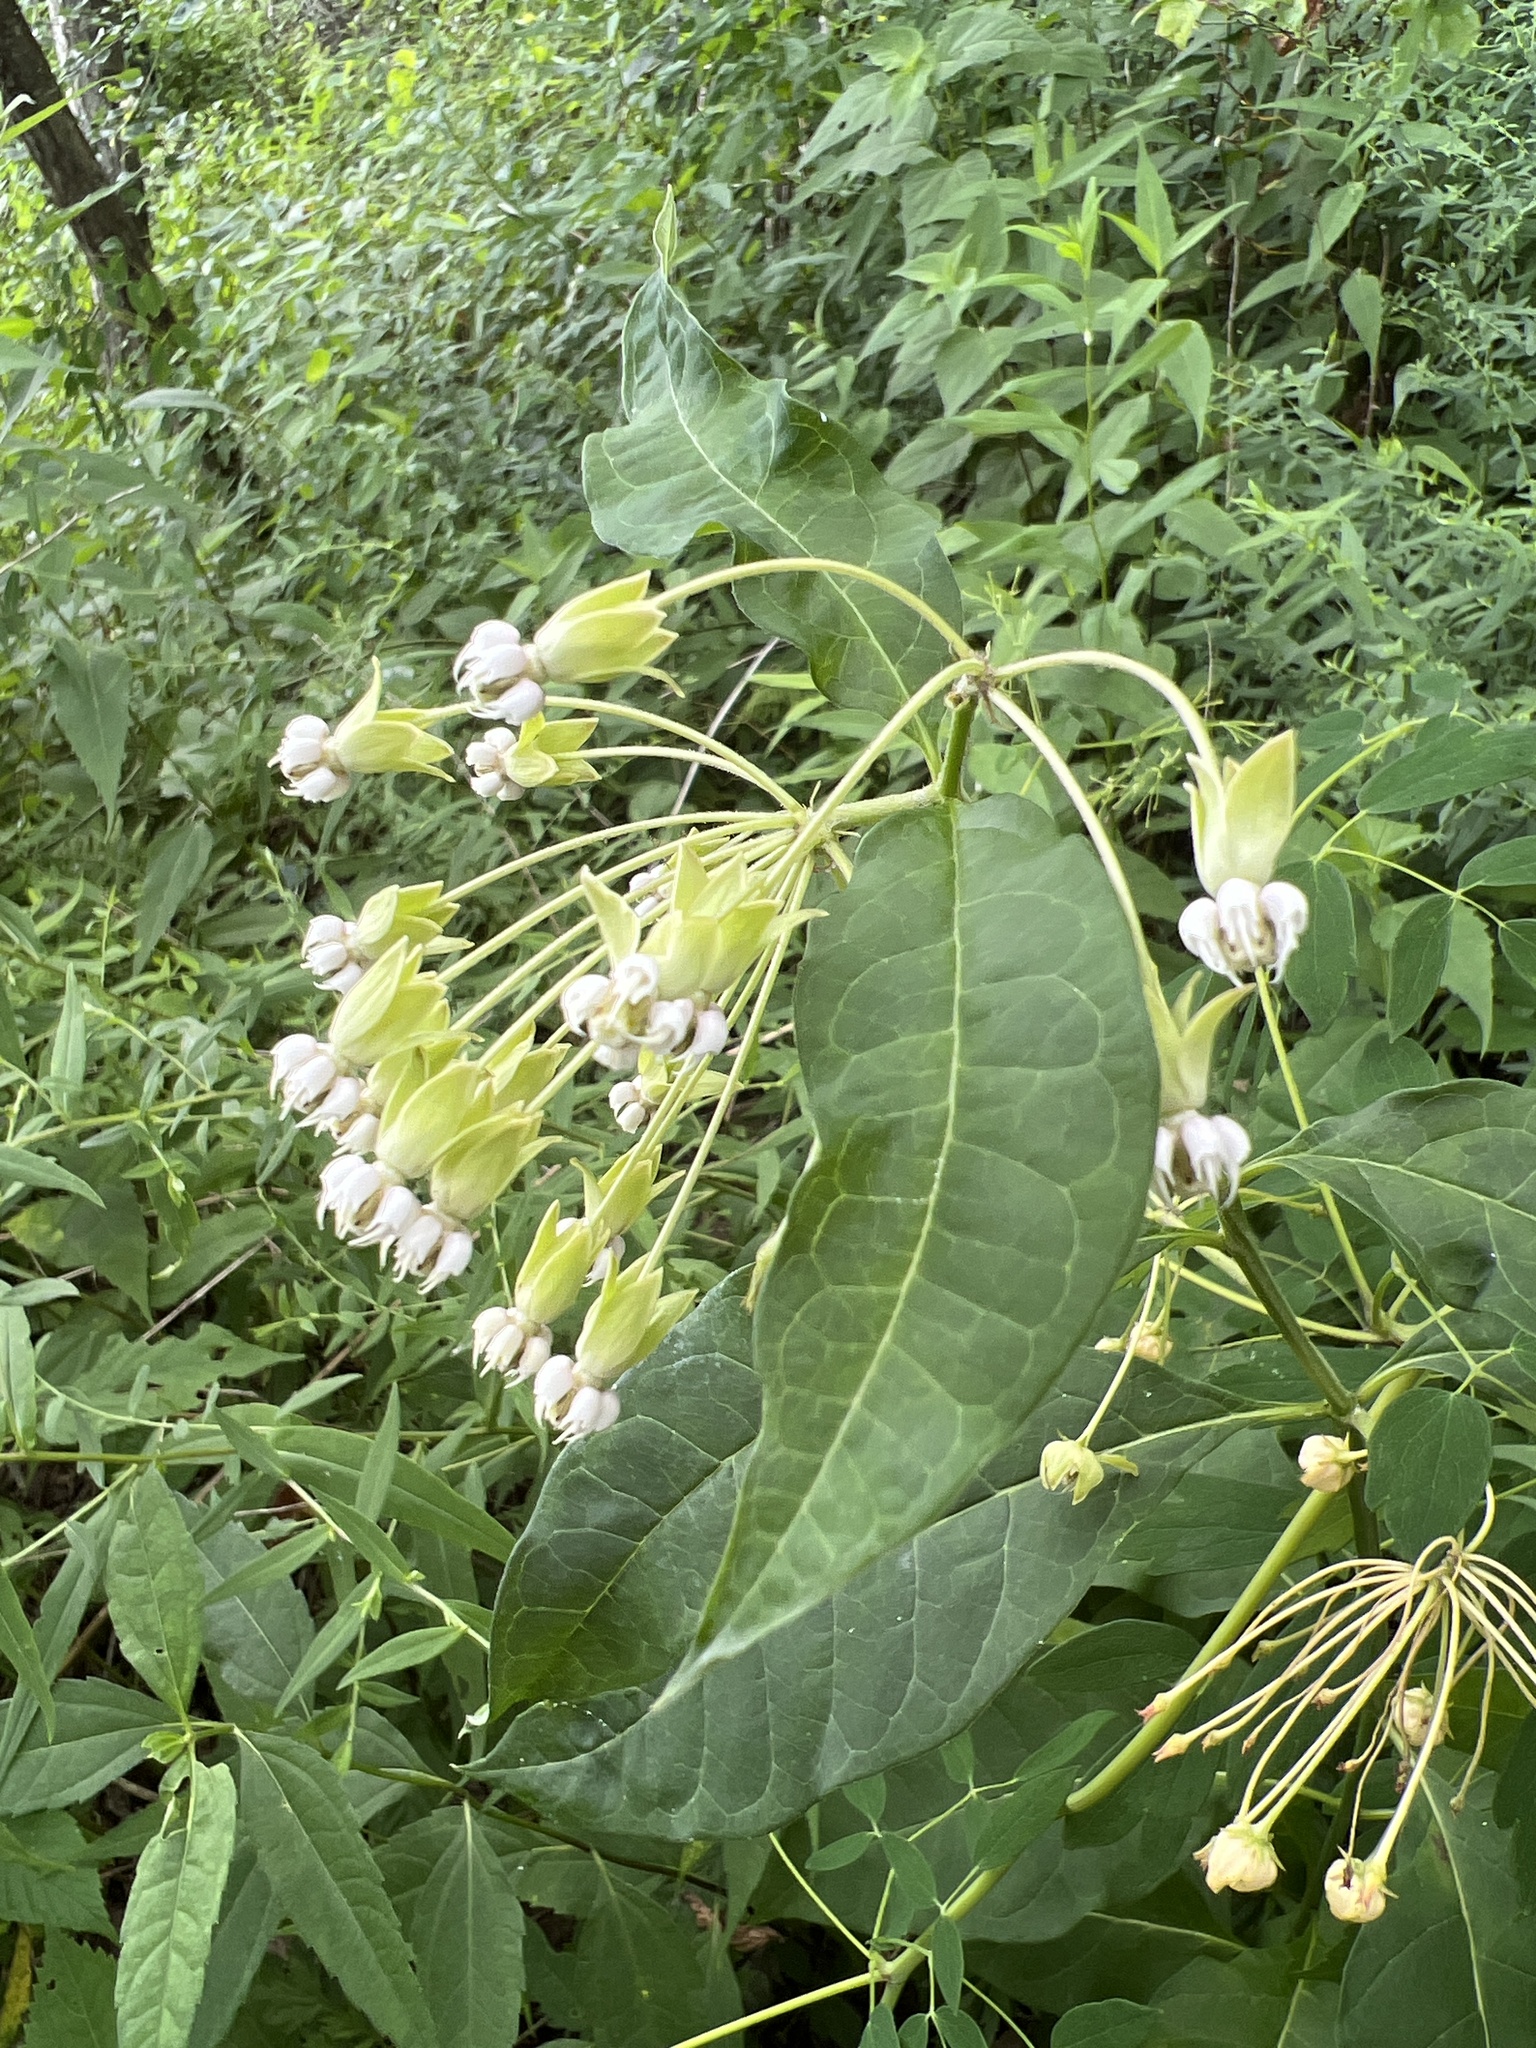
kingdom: Plantae
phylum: Tracheophyta
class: Magnoliopsida
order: Gentianales
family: Apocynaceae
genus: Asclepias
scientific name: Asclepias exaltata
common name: Poke milkweed
